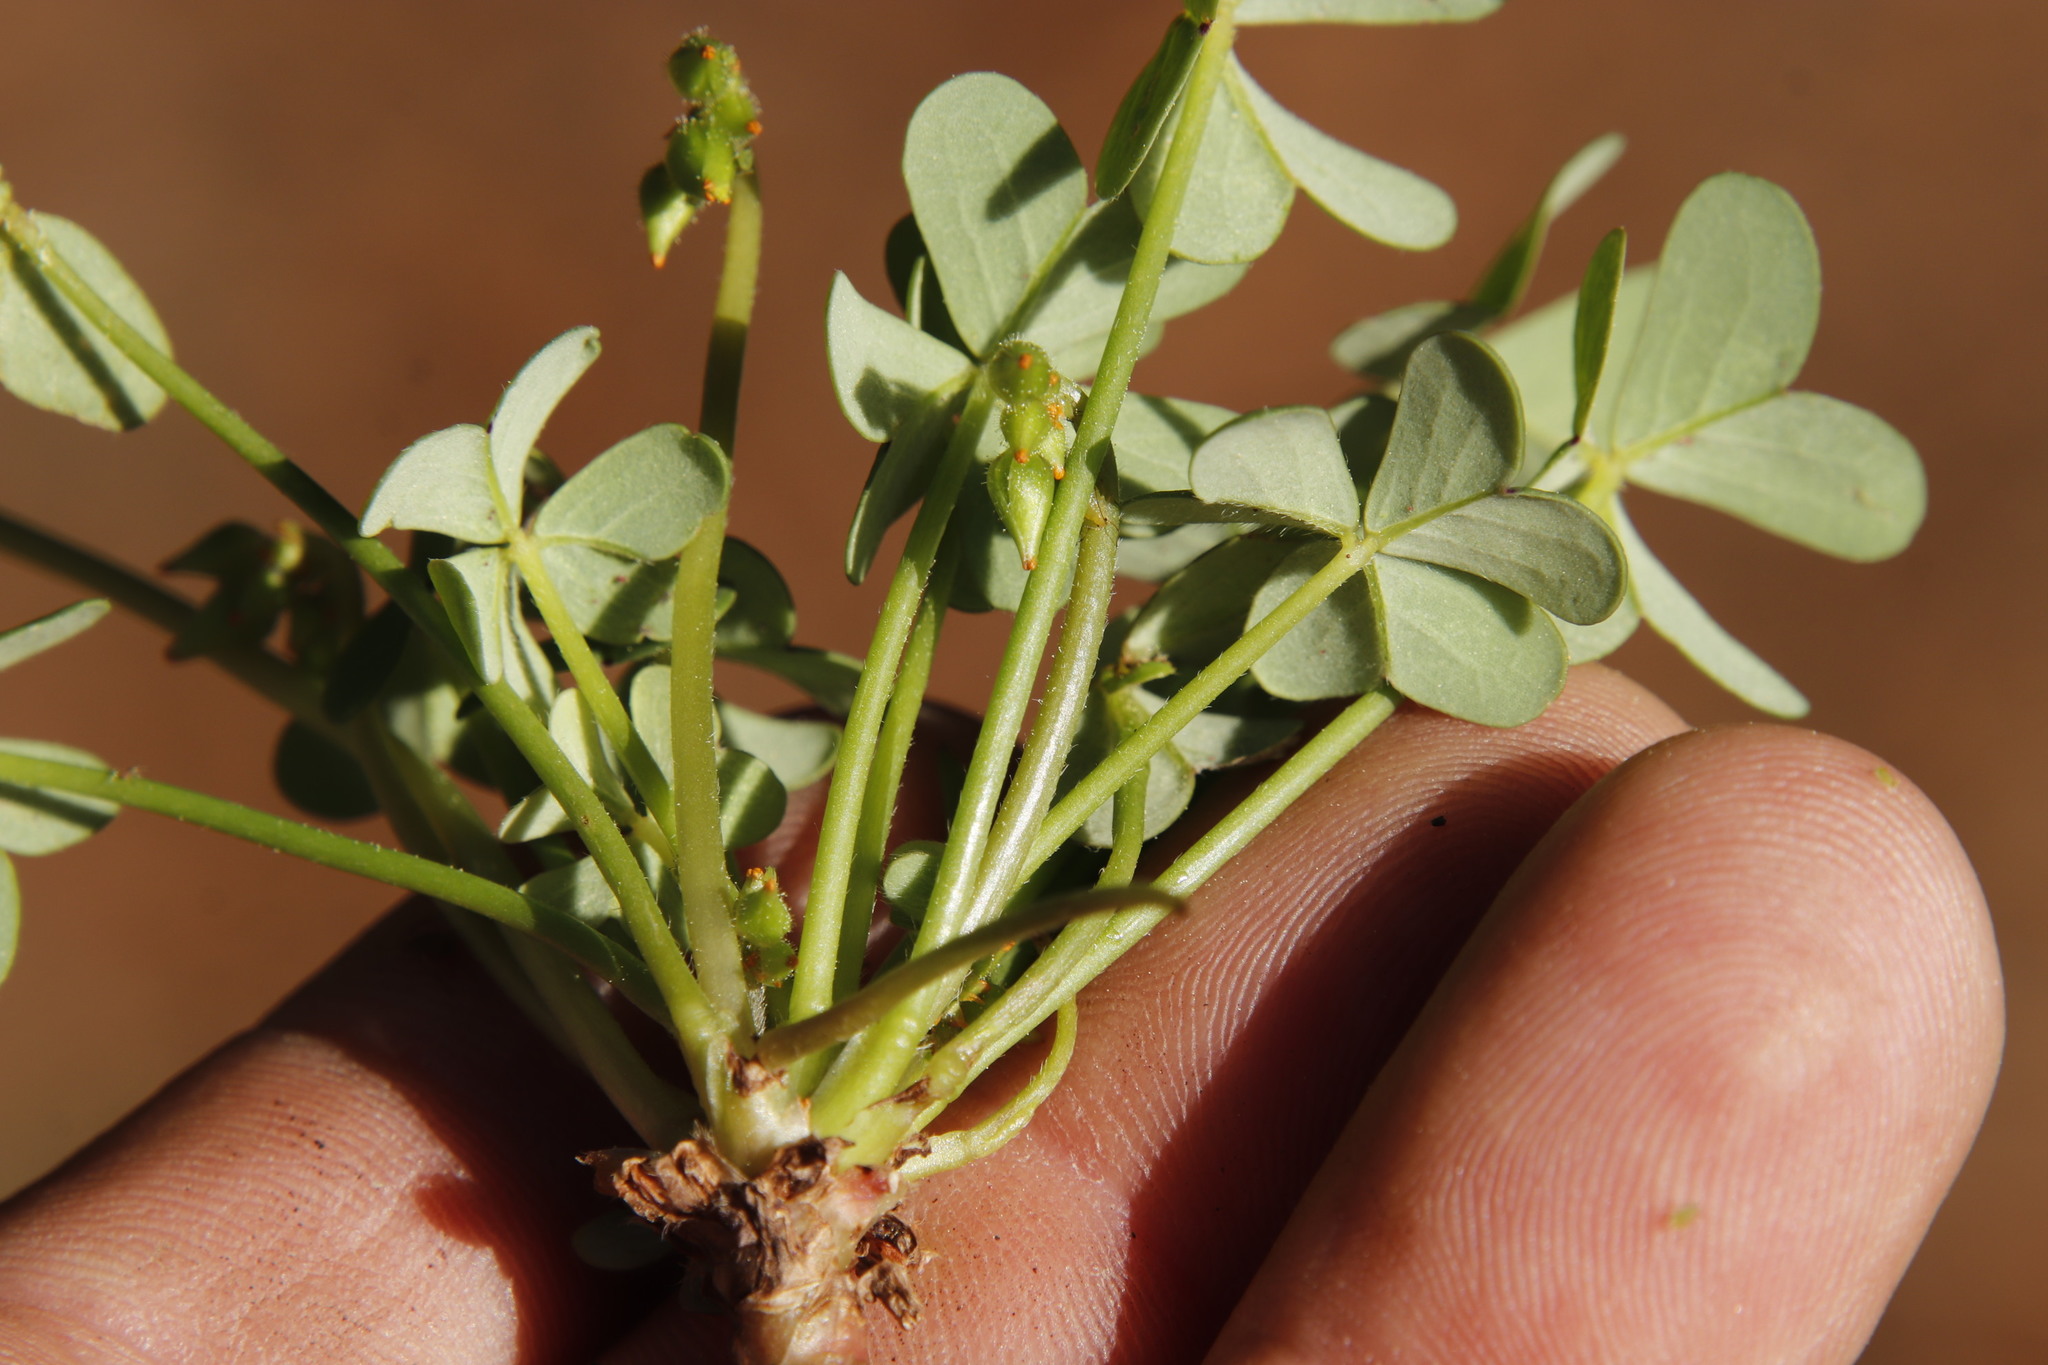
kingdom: Plantae
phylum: Tracheophyta
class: Magnoliopsida
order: Oxalidales
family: Oxalidaceae
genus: Oxalis
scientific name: Oxalis pes-caprae
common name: Bermuda-buttercup
